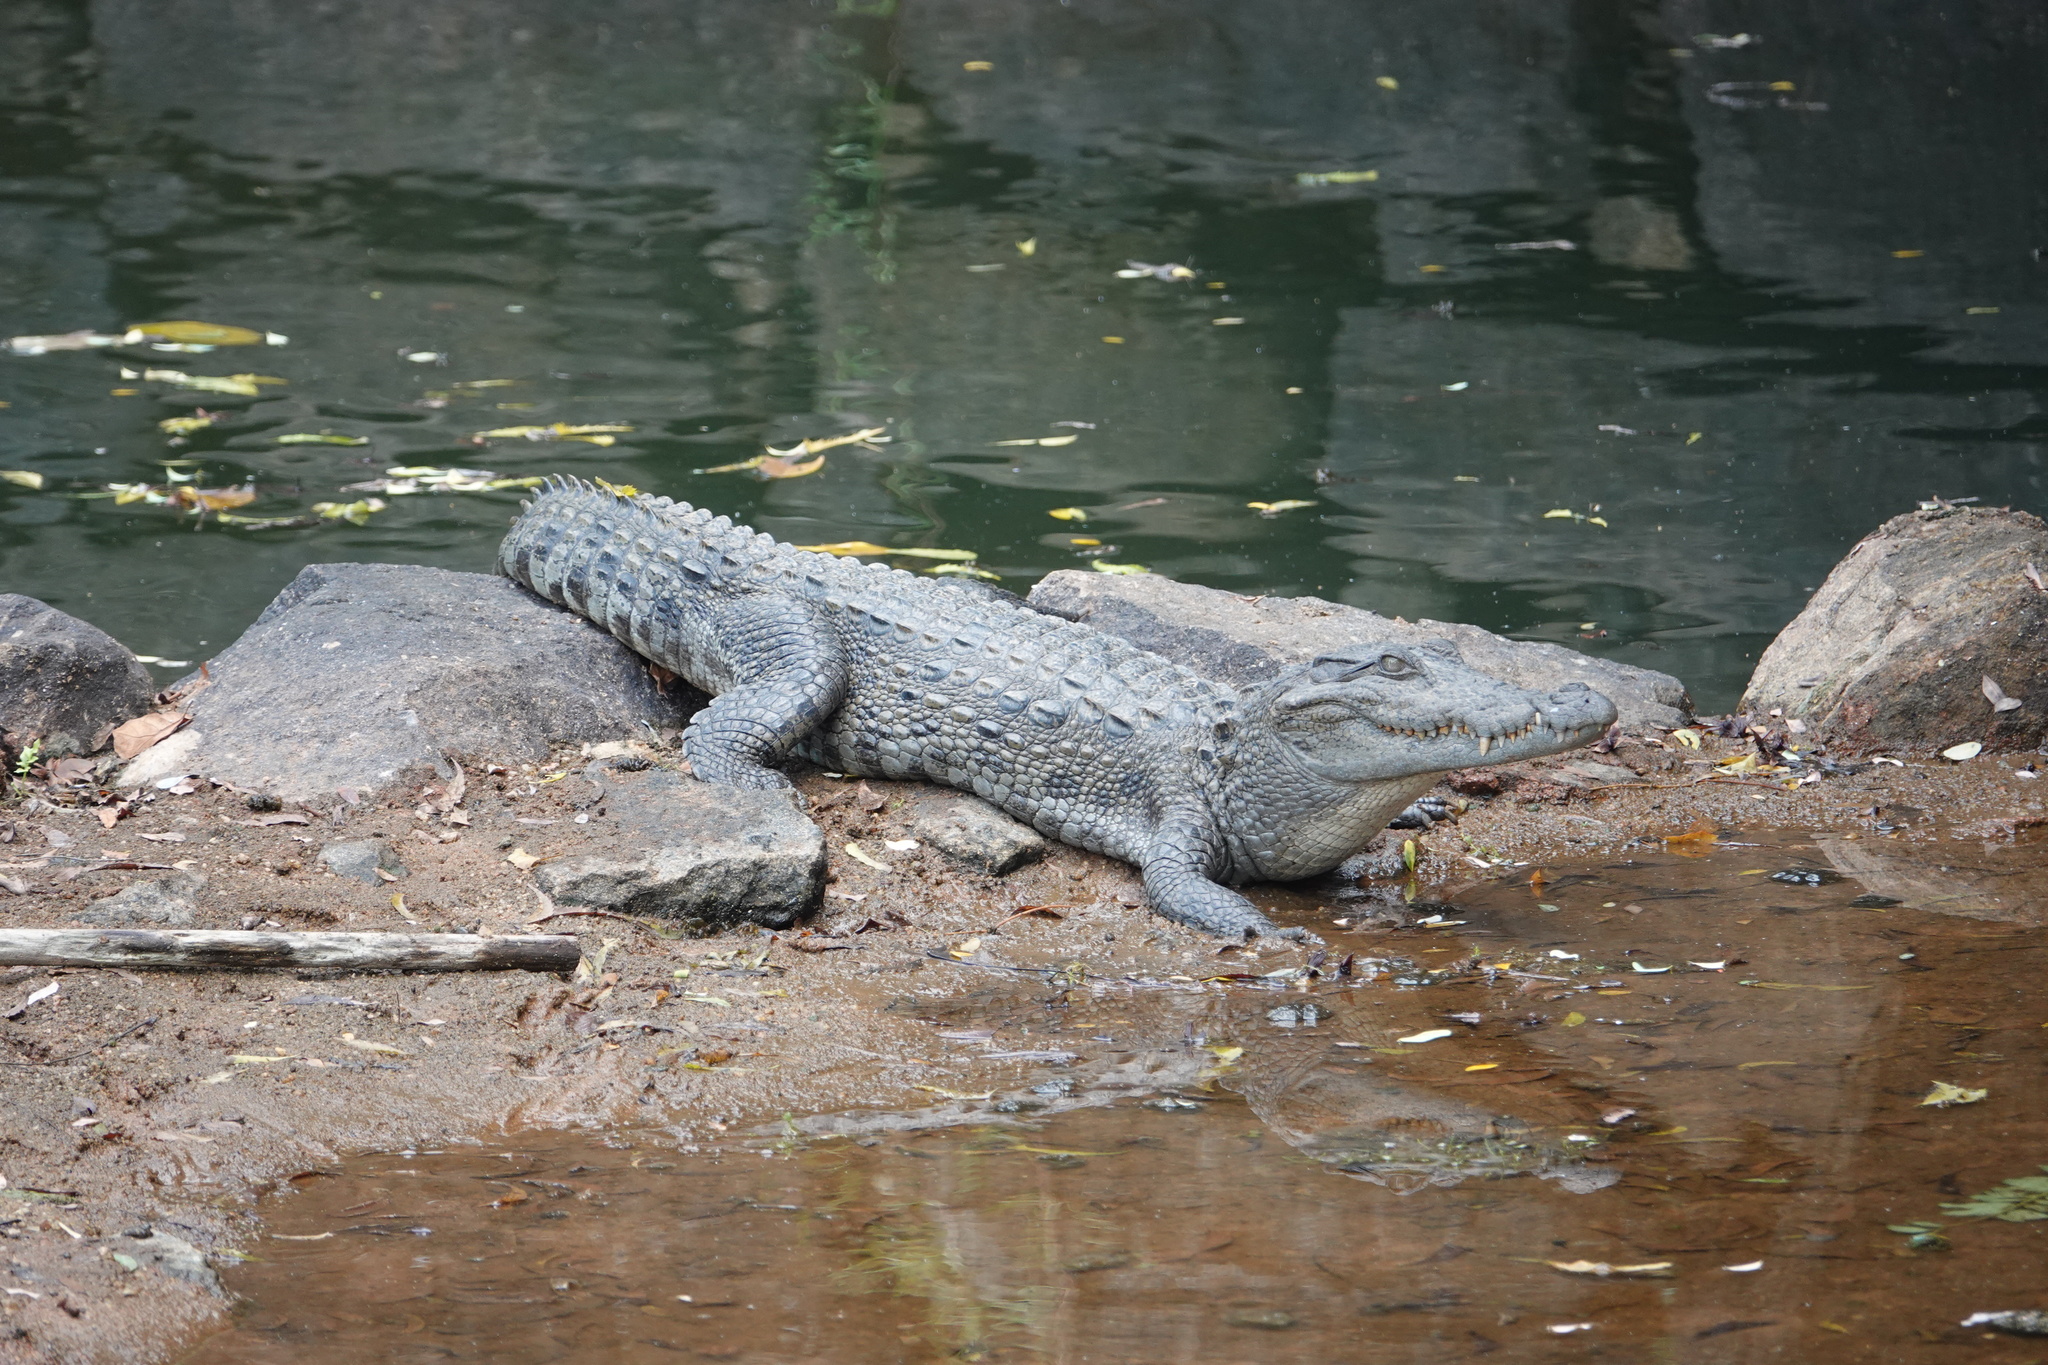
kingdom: Animalia
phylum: Chordata
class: Crocodylia
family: Crocodylidae
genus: Crocodylus
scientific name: Crocodylus palustris
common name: Mugger crocodile
